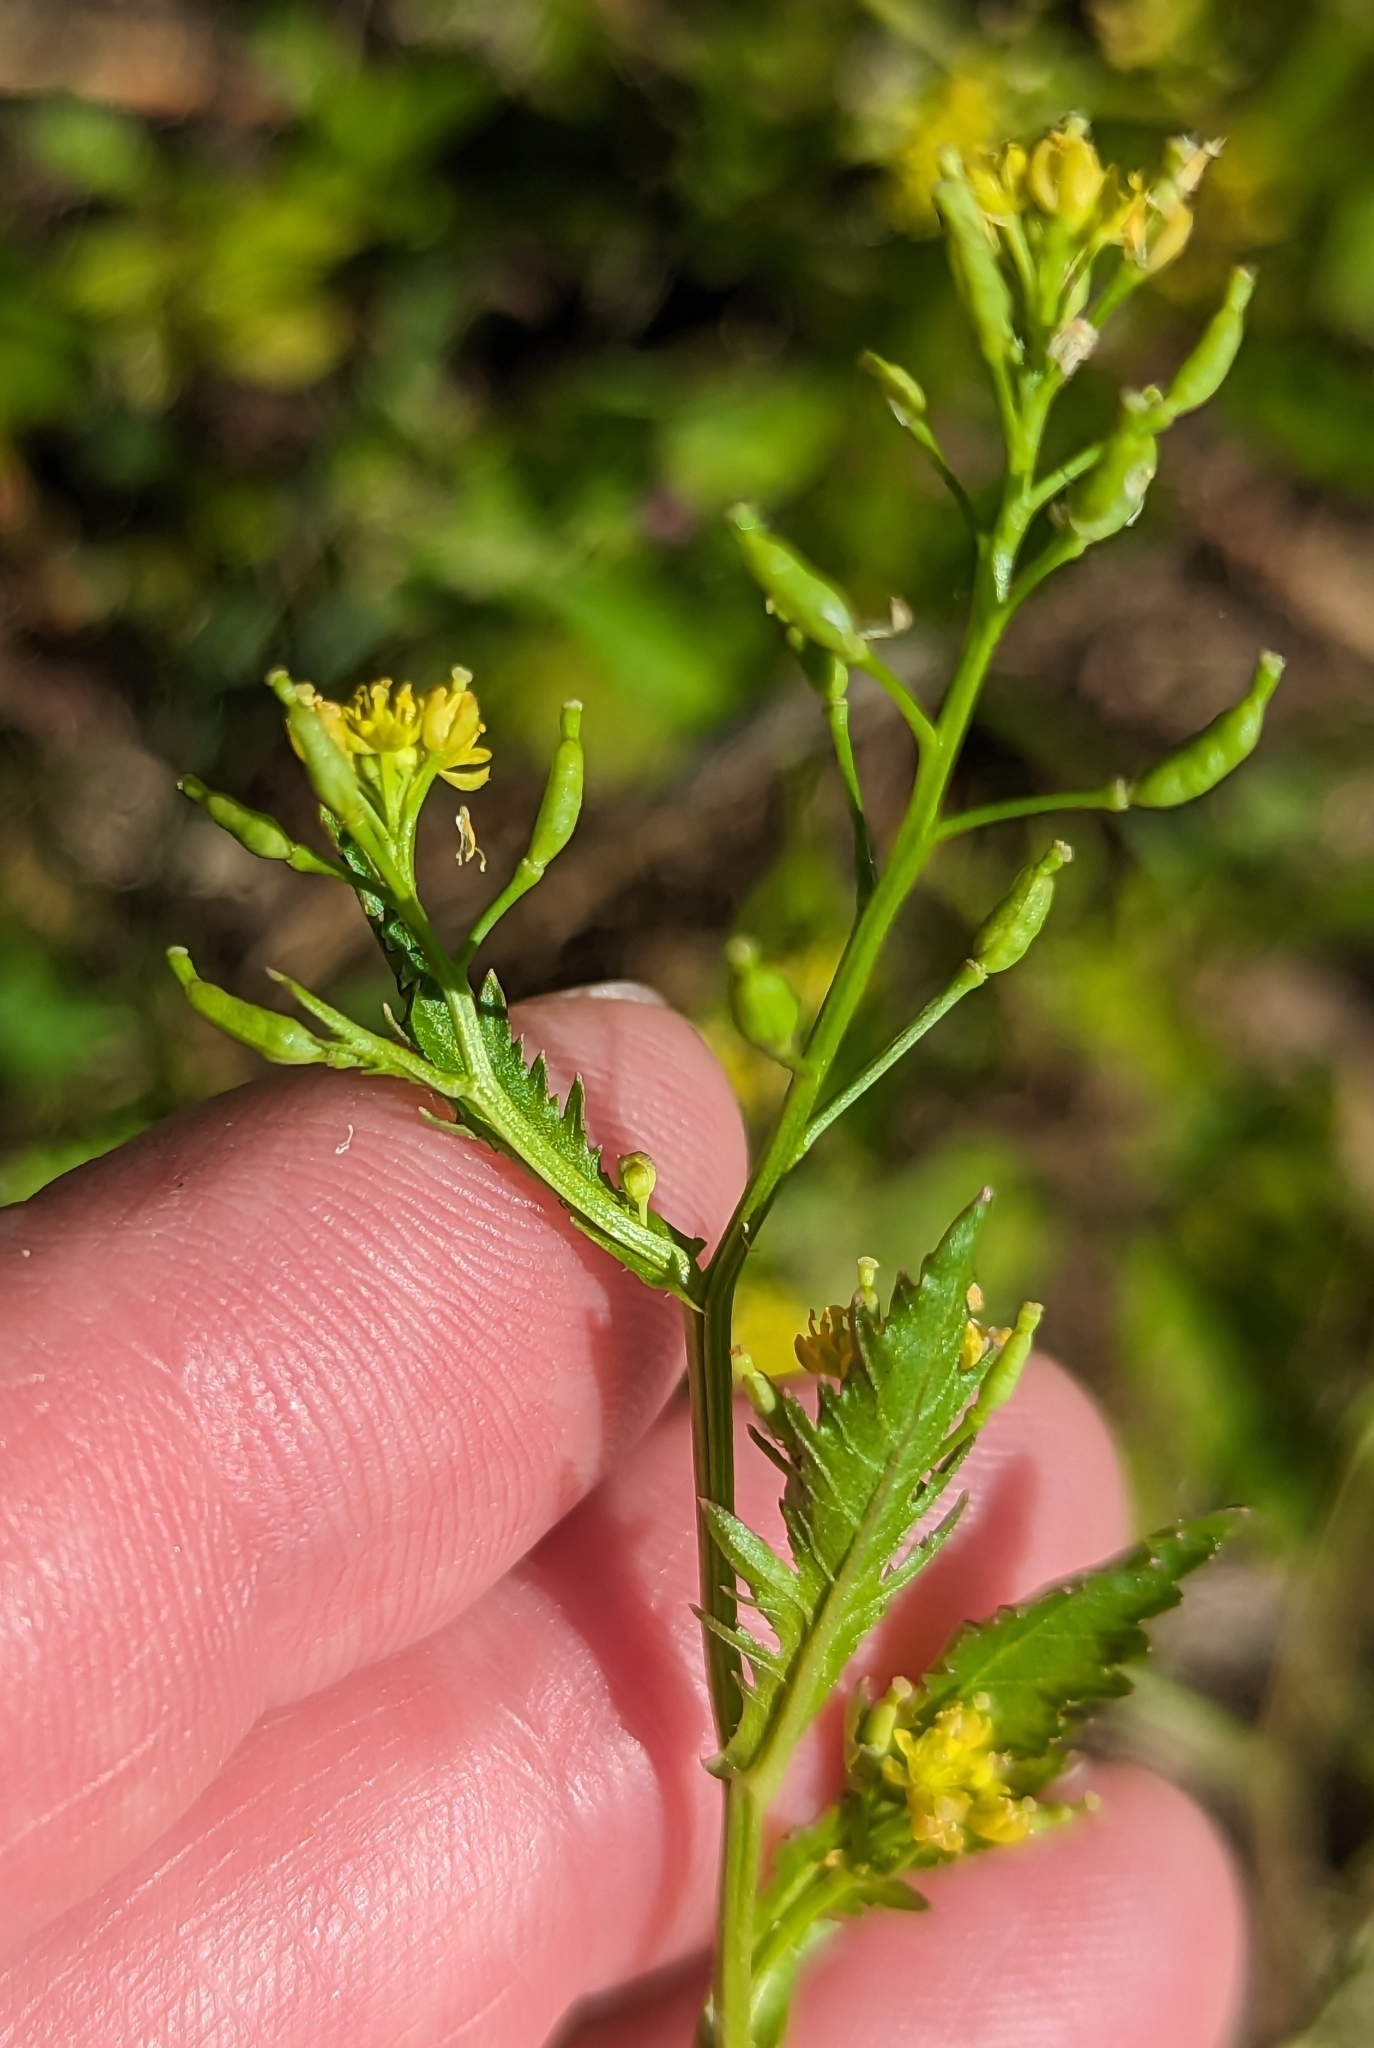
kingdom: Plantae
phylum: Tracheophyta
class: Magnoliopsida
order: Brassicales
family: Brassicaceae
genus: Rorippa
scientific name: Rorippa palustris
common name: Marsh yellow-cress
